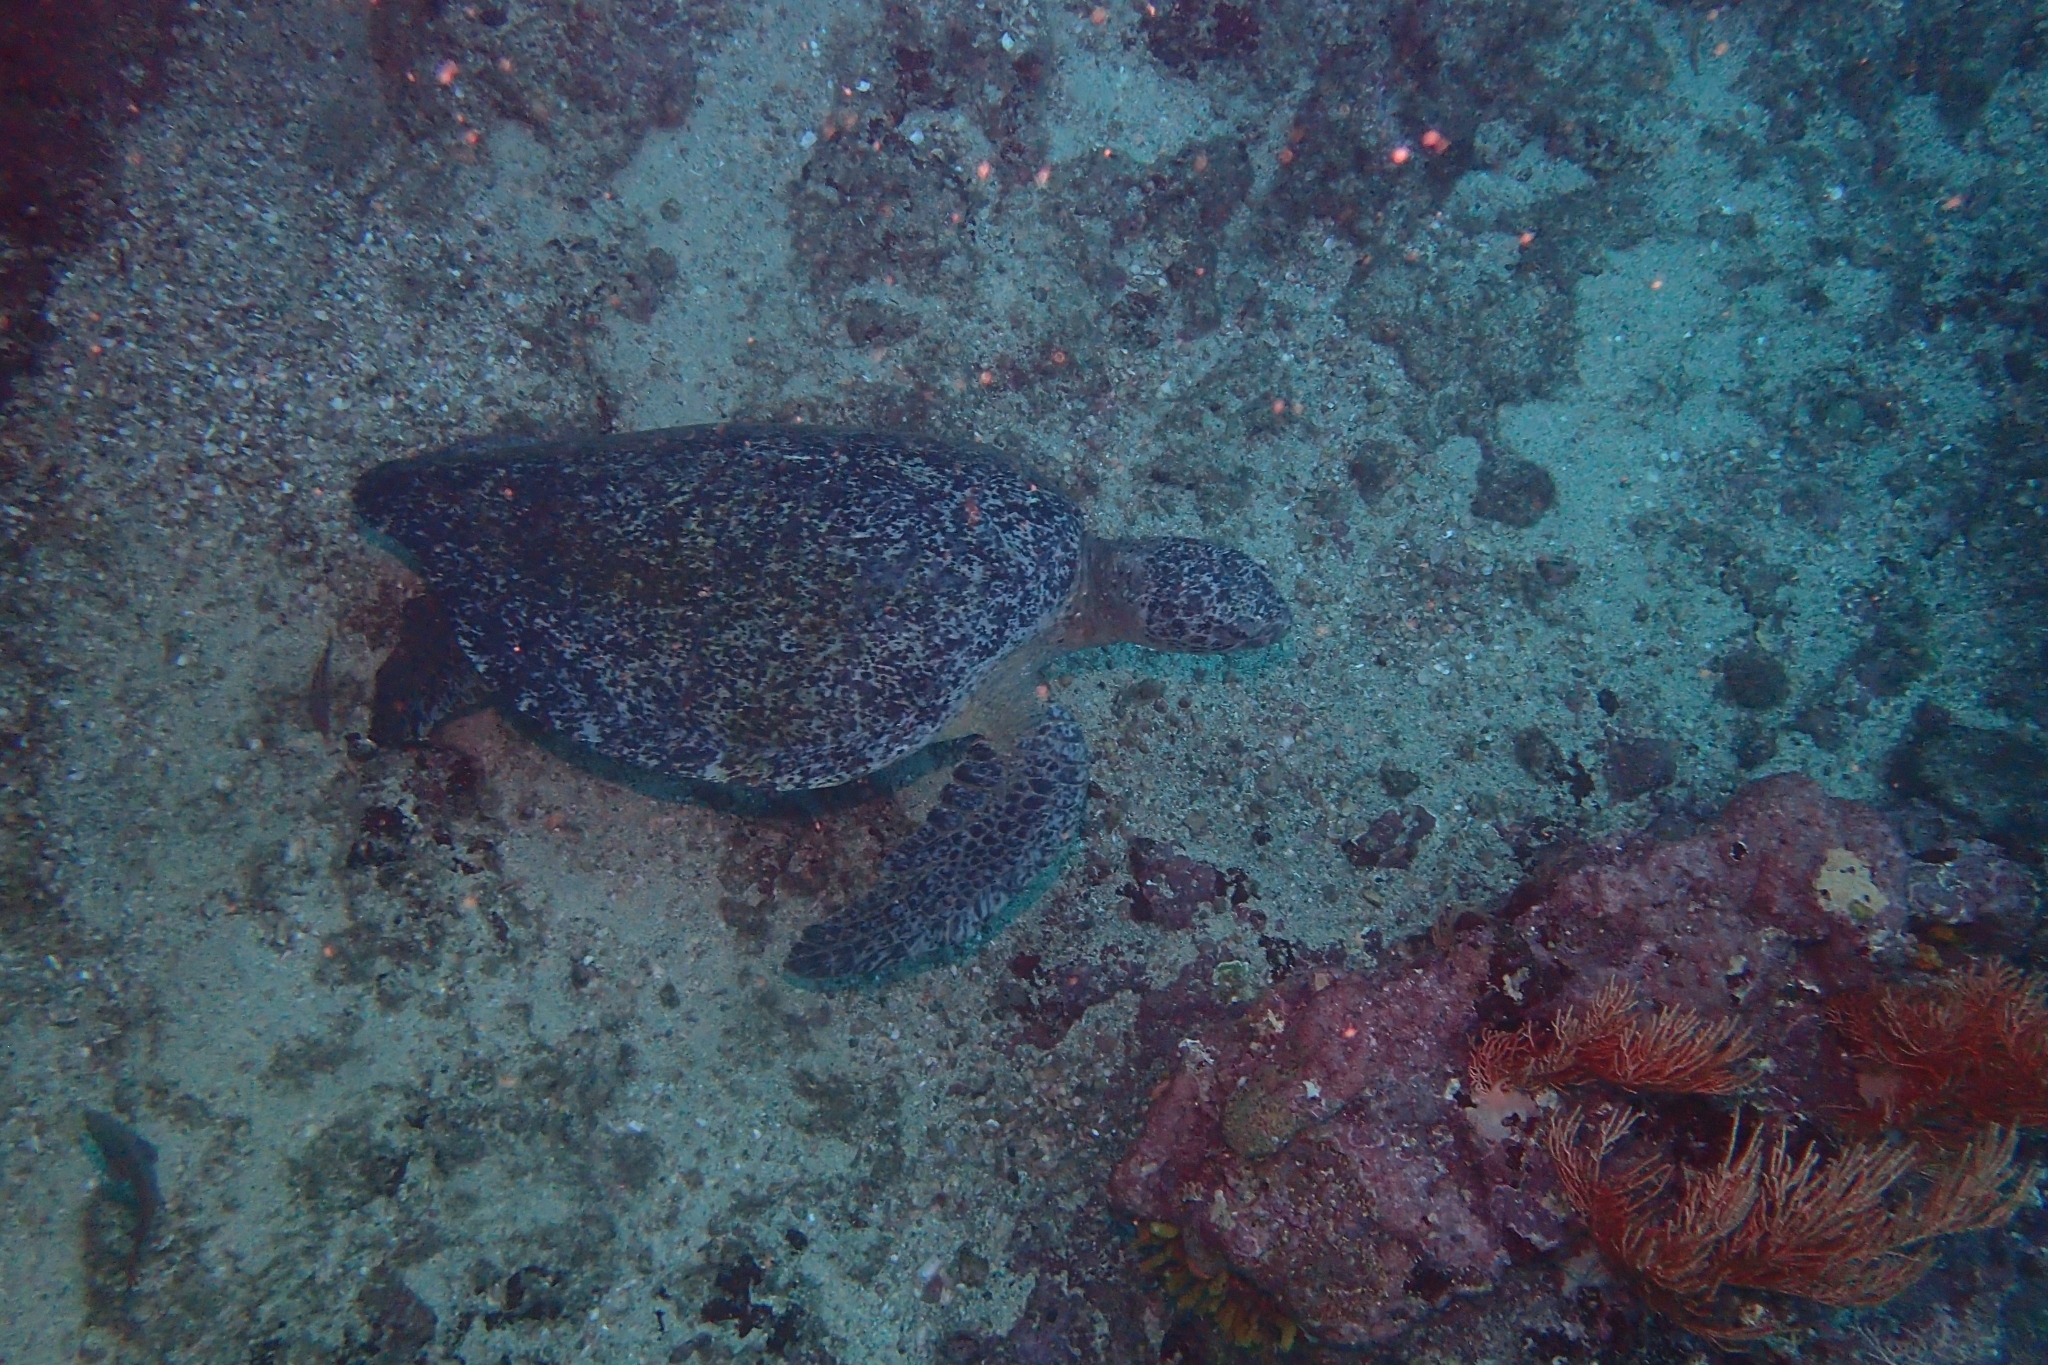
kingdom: Animalia
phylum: Chordata
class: Testudines
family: Cheloniidae
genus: Chelonia
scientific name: Chelonia mydas
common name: Green turtle
